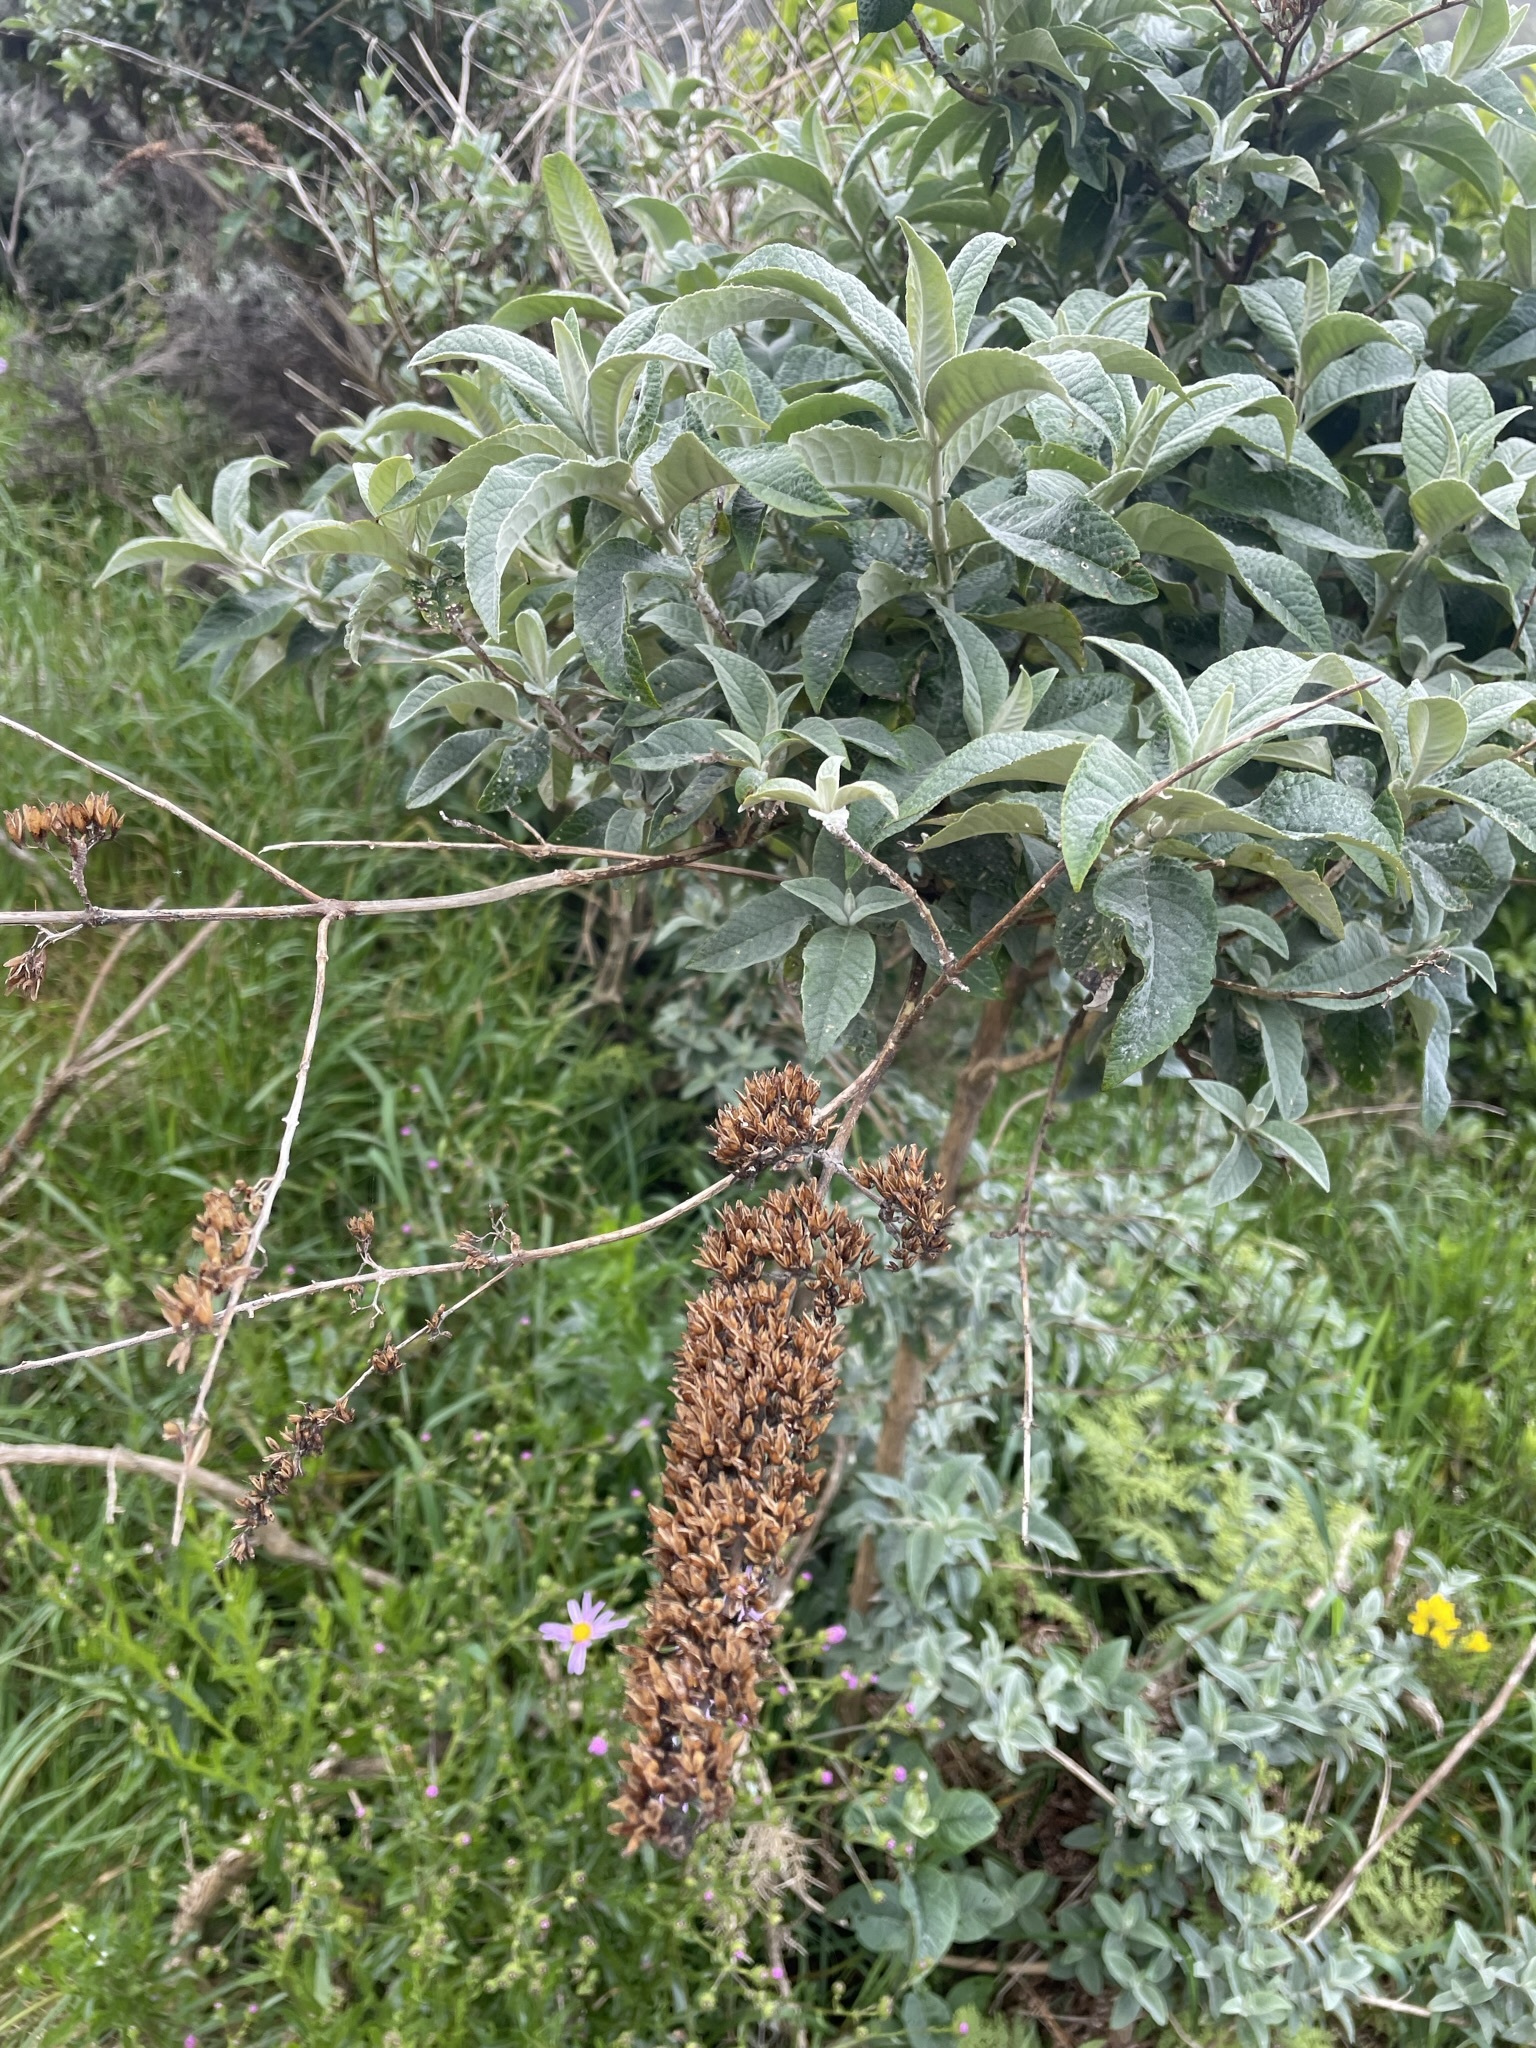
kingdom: Plantae
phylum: Tracheophyta
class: Magnoliopsida
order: Lamiales
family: Scrophulariaceae
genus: Buddleja
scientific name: Buddleja davidii
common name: Butterfly-bush
